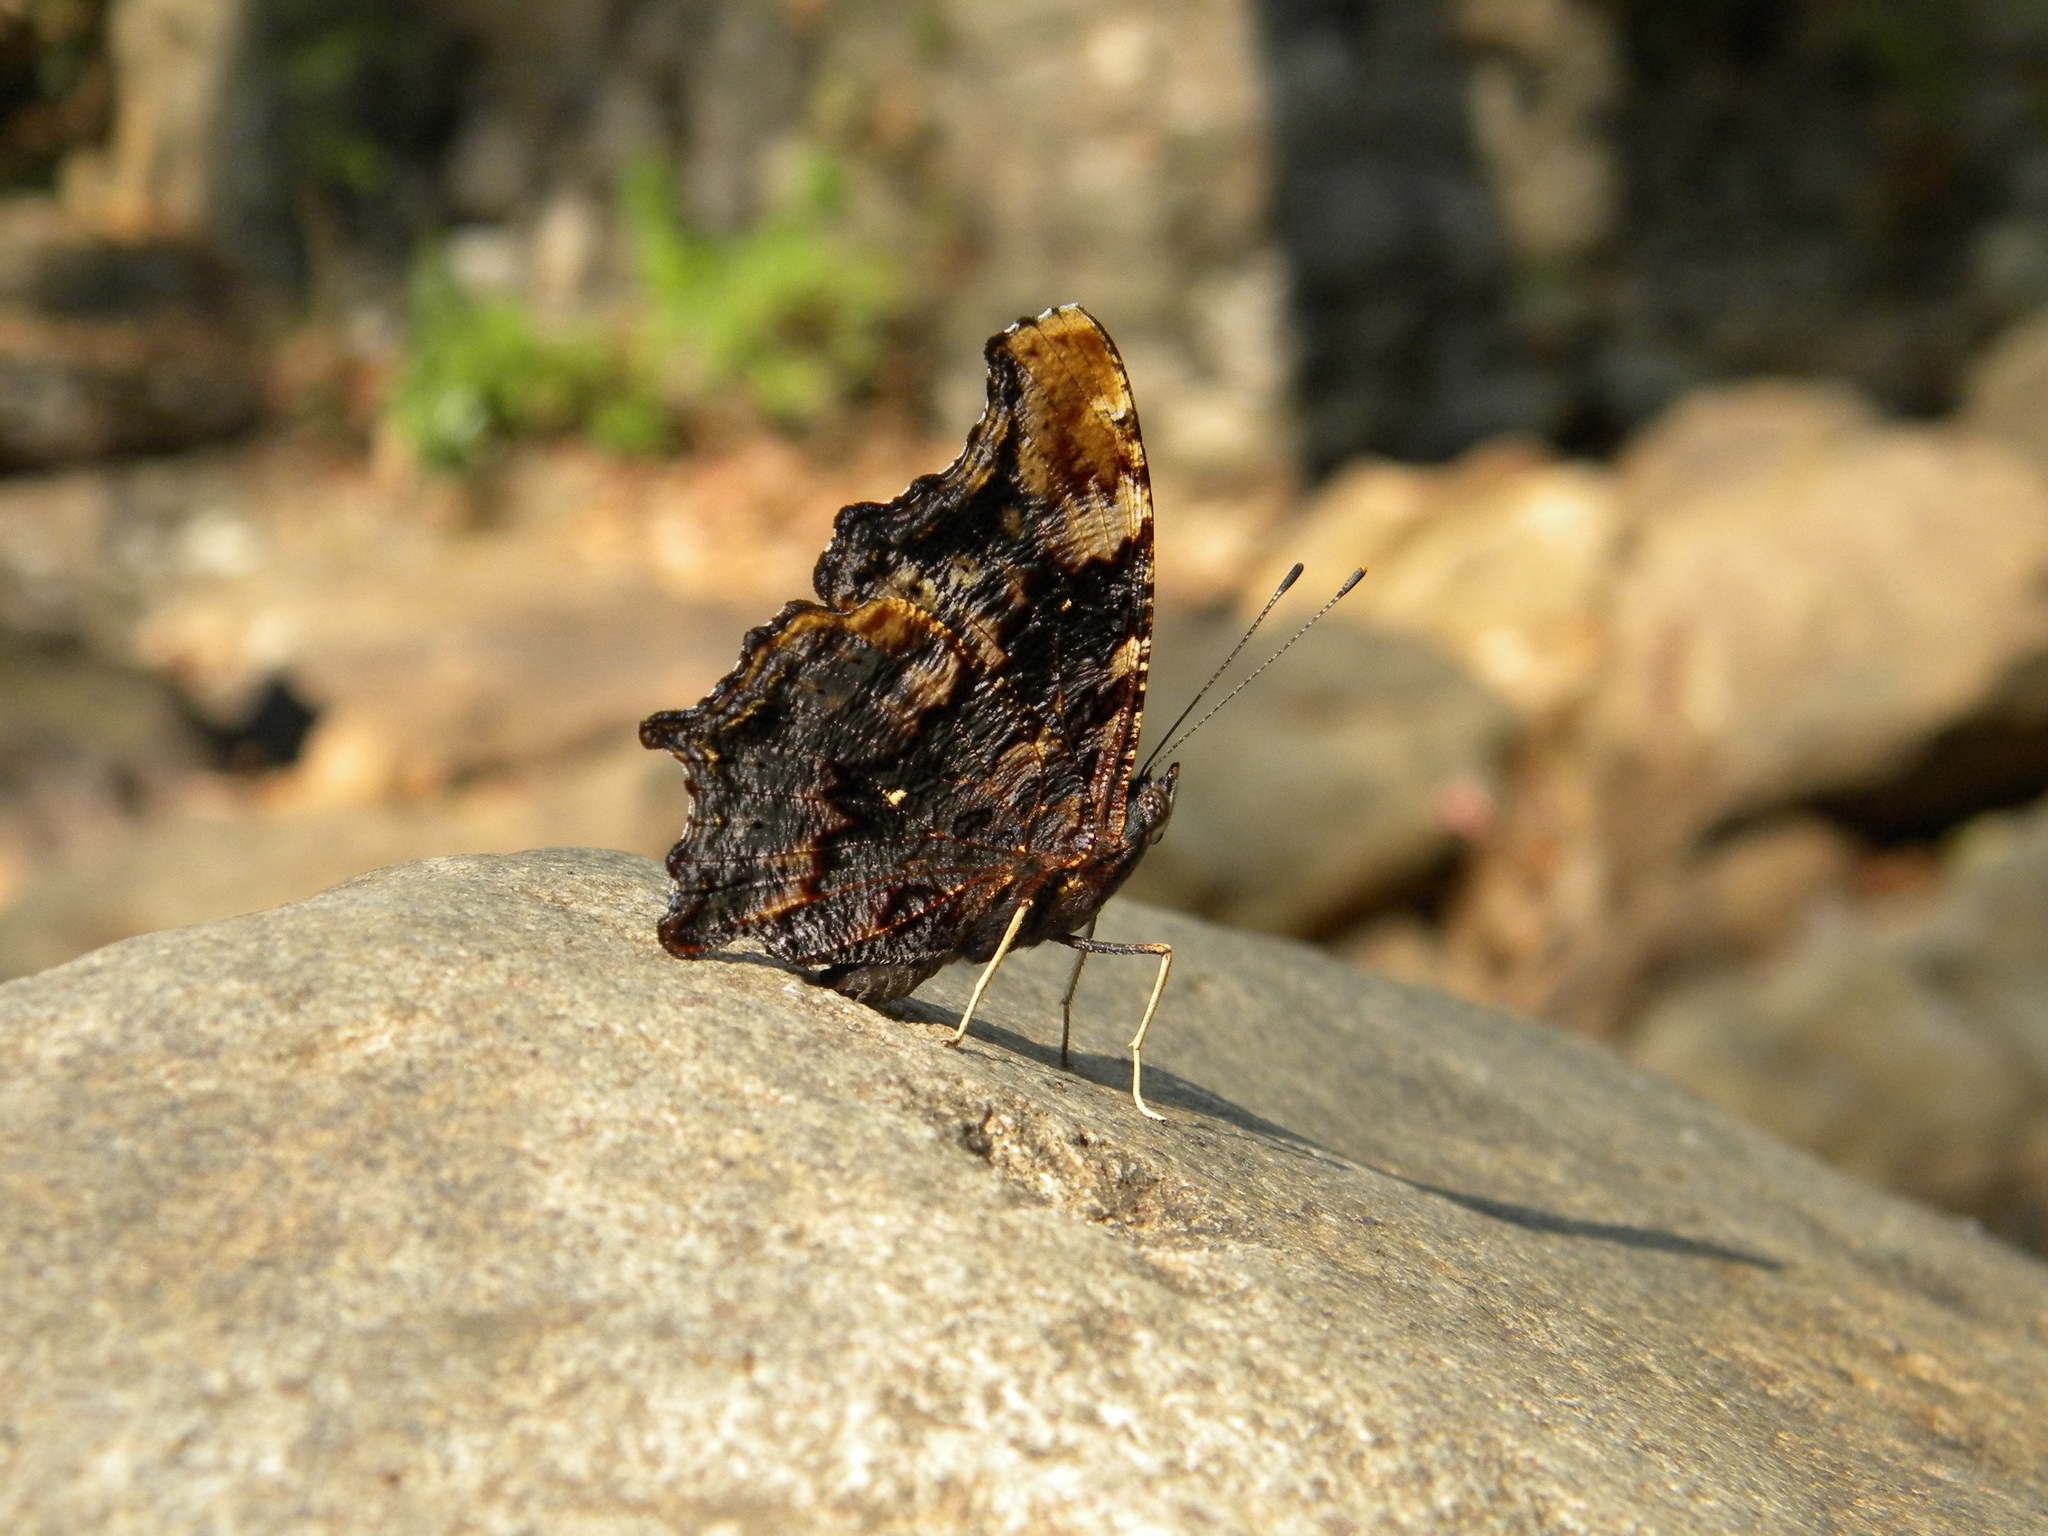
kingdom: Animalia
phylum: Arthropoda
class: Insecta
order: Lepidoptera
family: Nymphalidae
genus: Vanessa
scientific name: Vanessa Kaniska canace
